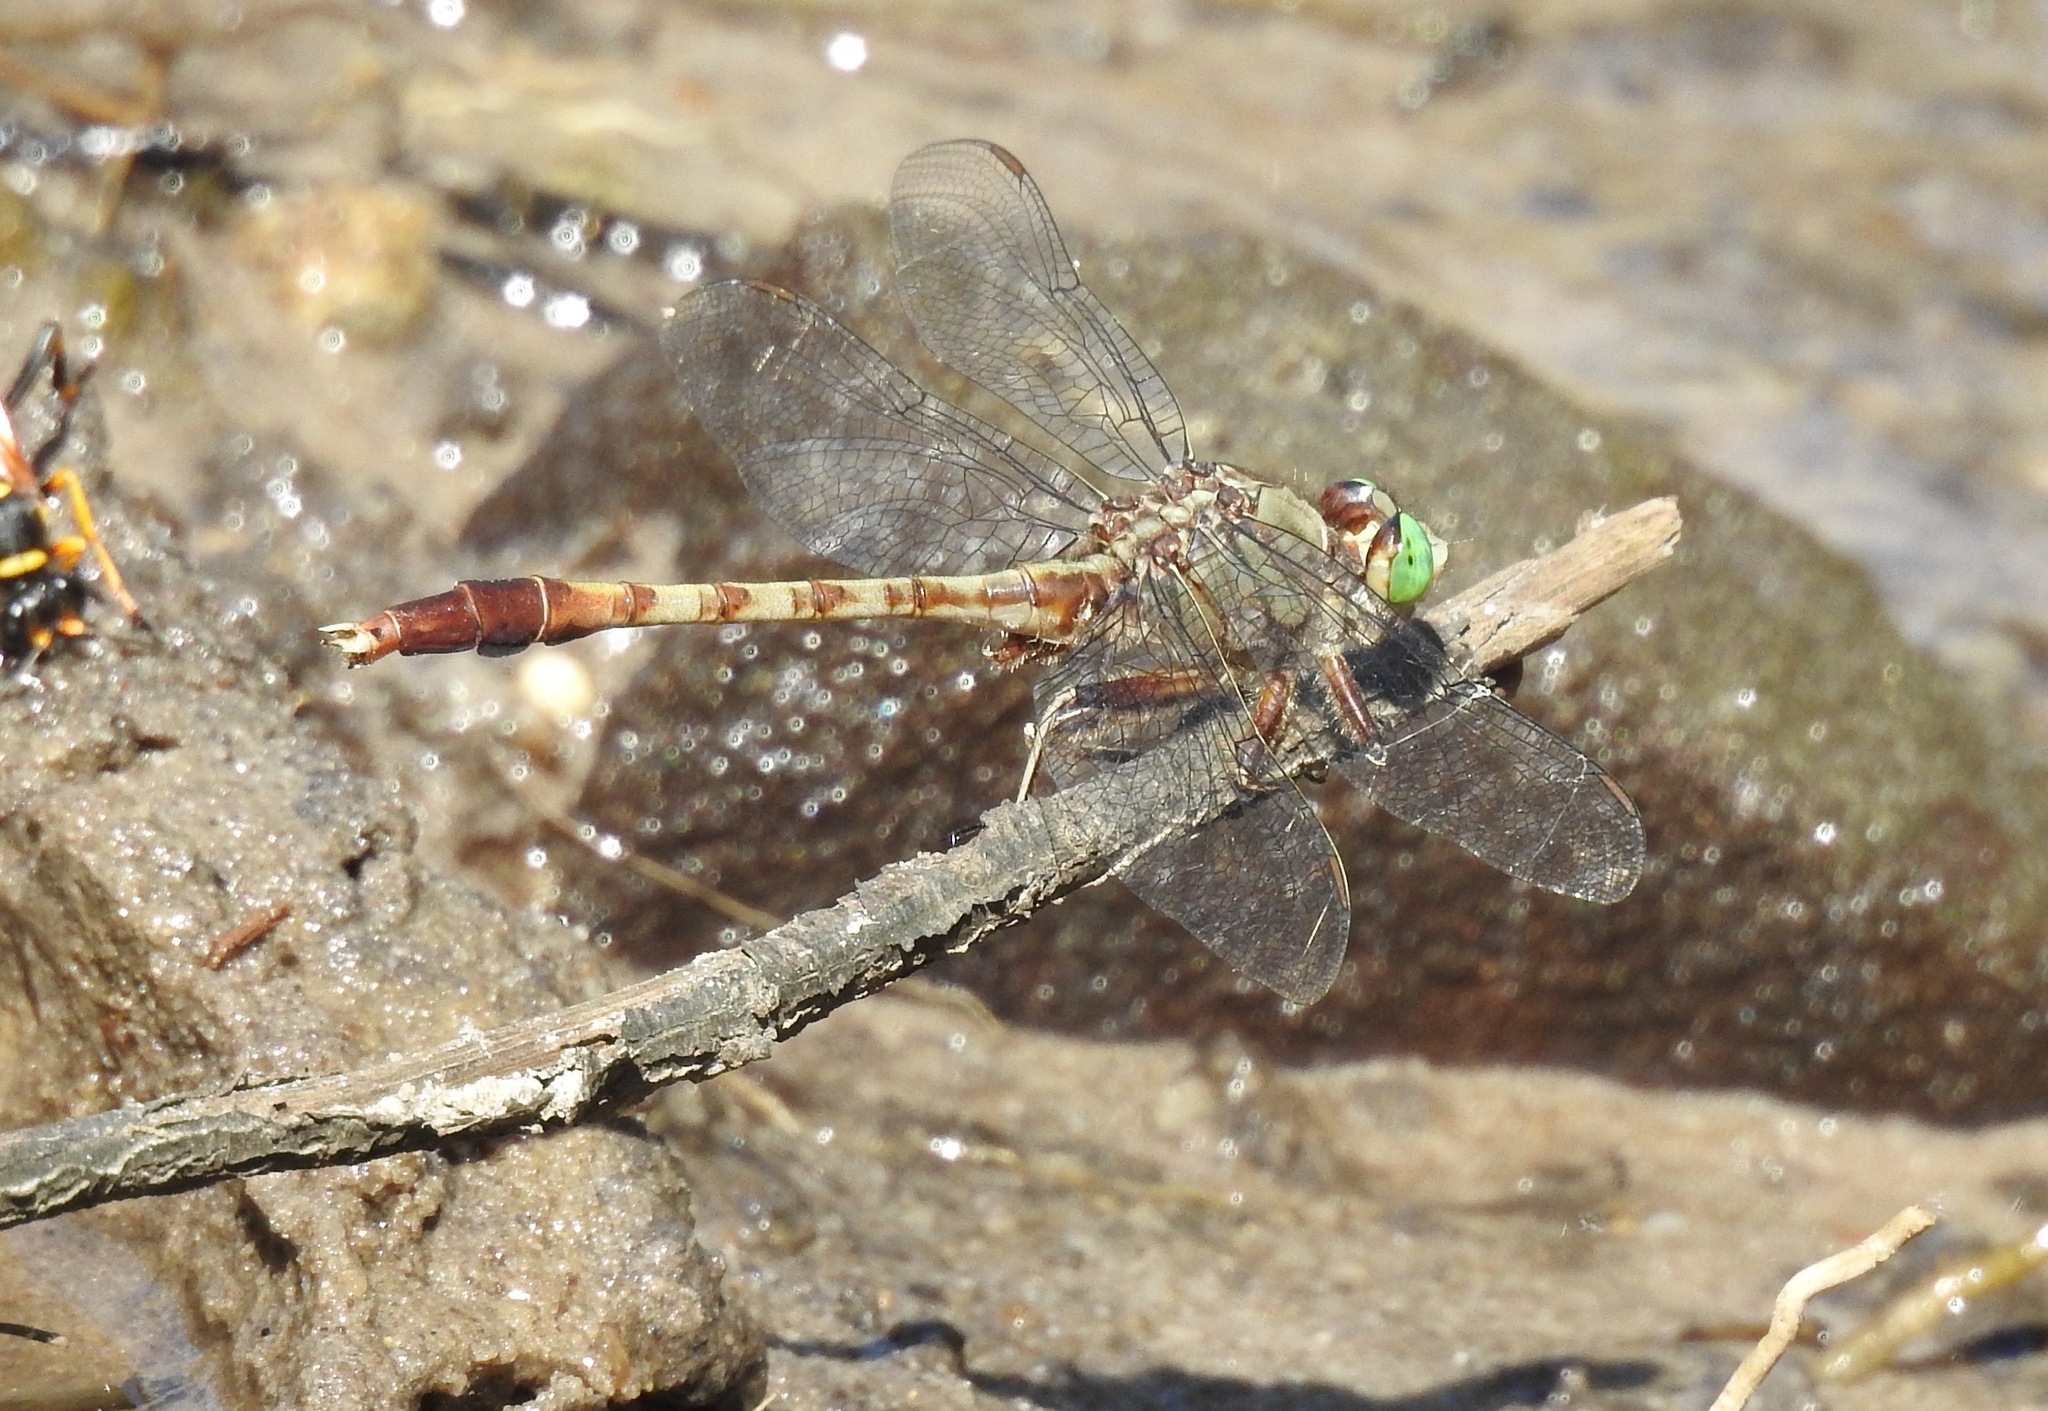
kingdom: Animalia
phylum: Arthropoda
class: Insecta
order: Odonata
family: Gomphidae
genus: Arigomphus
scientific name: Arigomphus pallidus
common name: Gray-green clubtail
